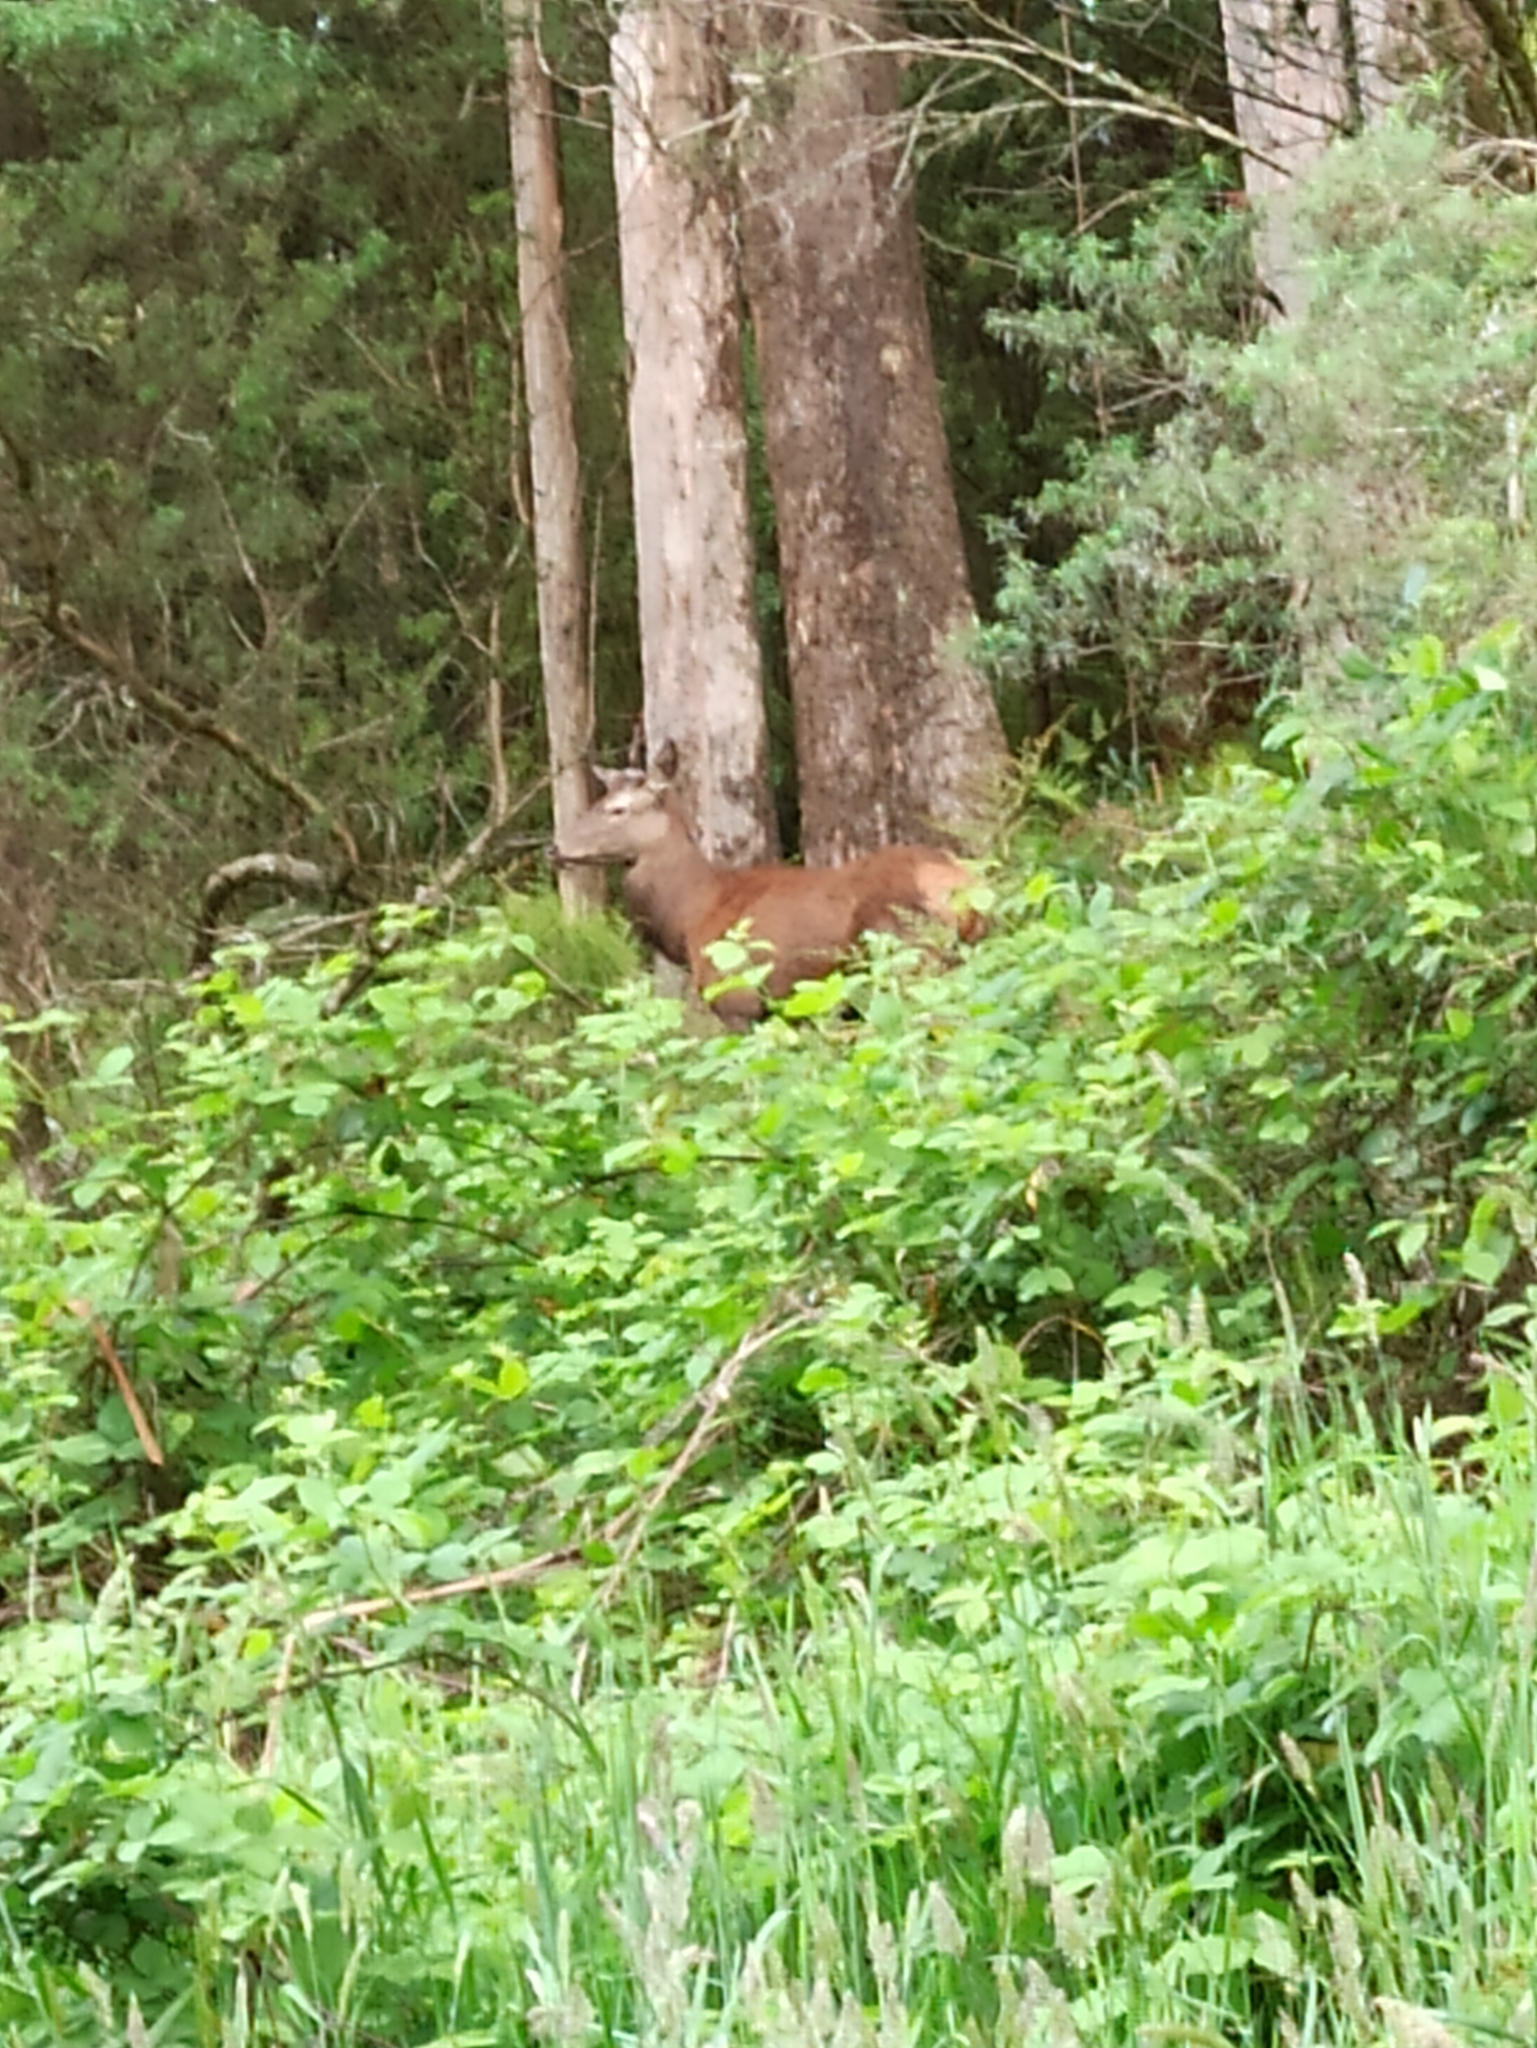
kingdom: Animalia
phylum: Chordata
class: Mammalia
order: Artiodactyla
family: Cervidae
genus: Cervus
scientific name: Cervus elaphus
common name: Red deer
